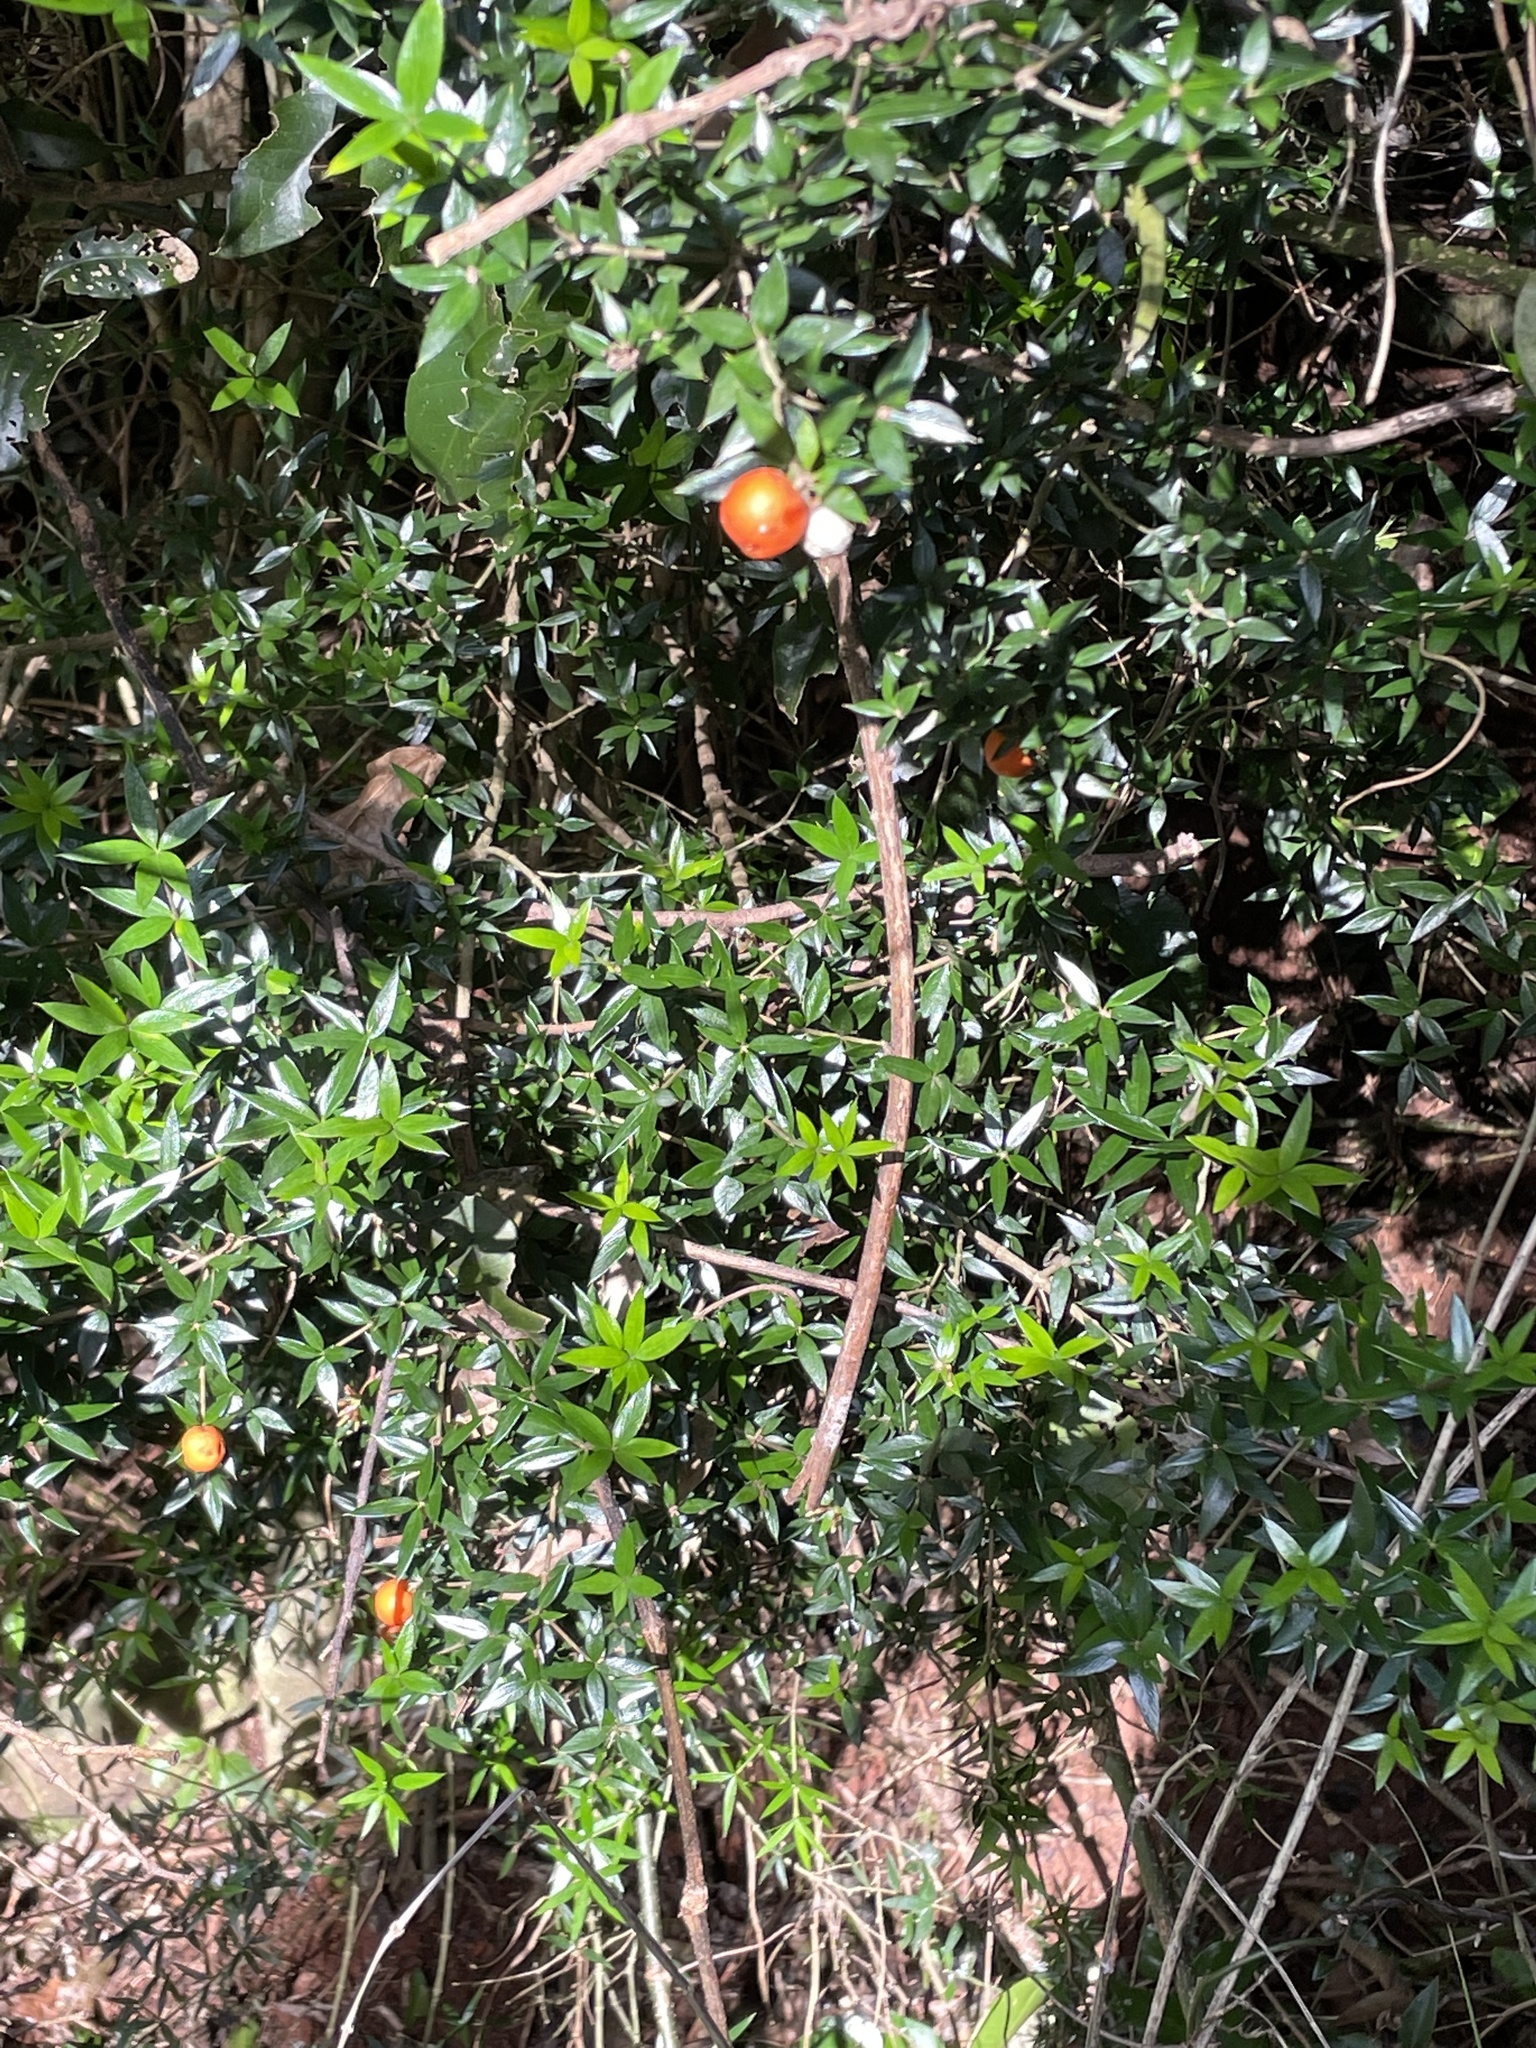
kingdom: Plantae
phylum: Tracheophyta
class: Magnoliopsida
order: Gentianales
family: Apocynaceae
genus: Alyxia
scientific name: Alyxia ruscifolia
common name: Chainfruit
